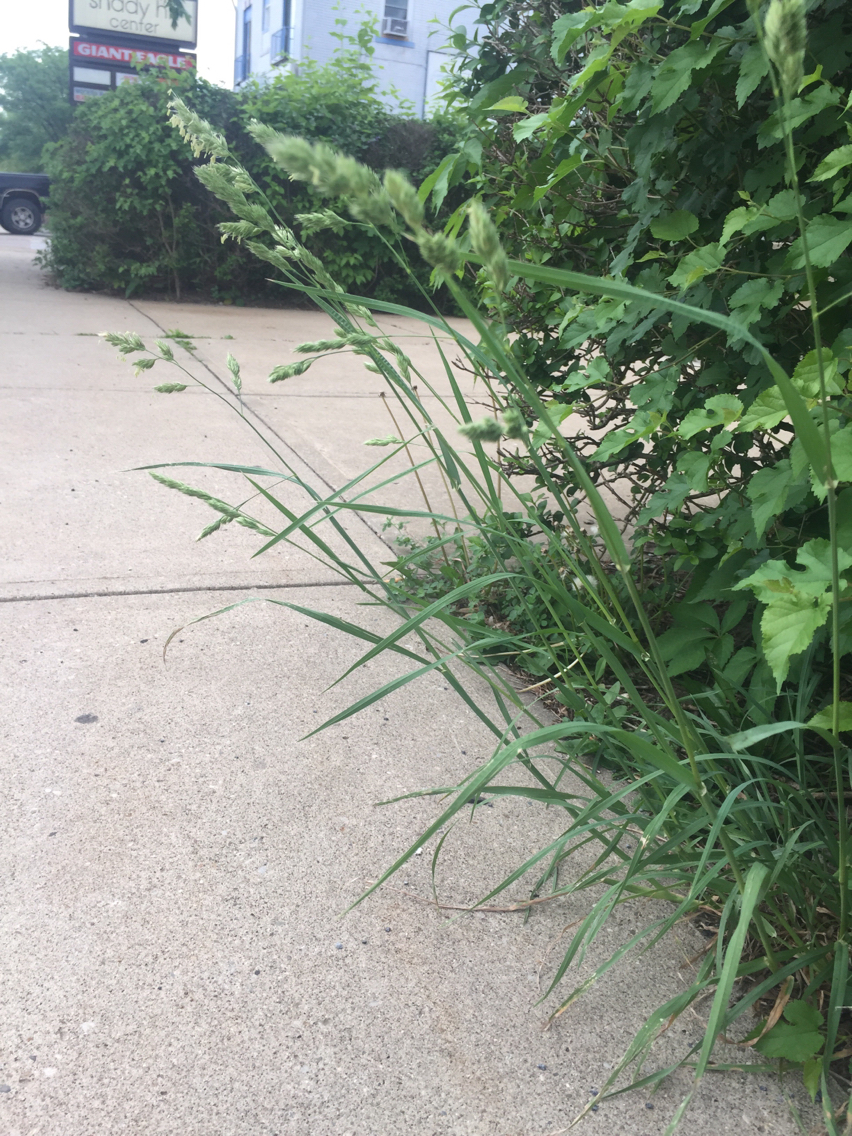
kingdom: Plantae
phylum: Tracheophyta
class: Liliopsida
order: Poales
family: Poaceae
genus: Dactylis
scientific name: Dactylis glomerata
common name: Orchardgrass
